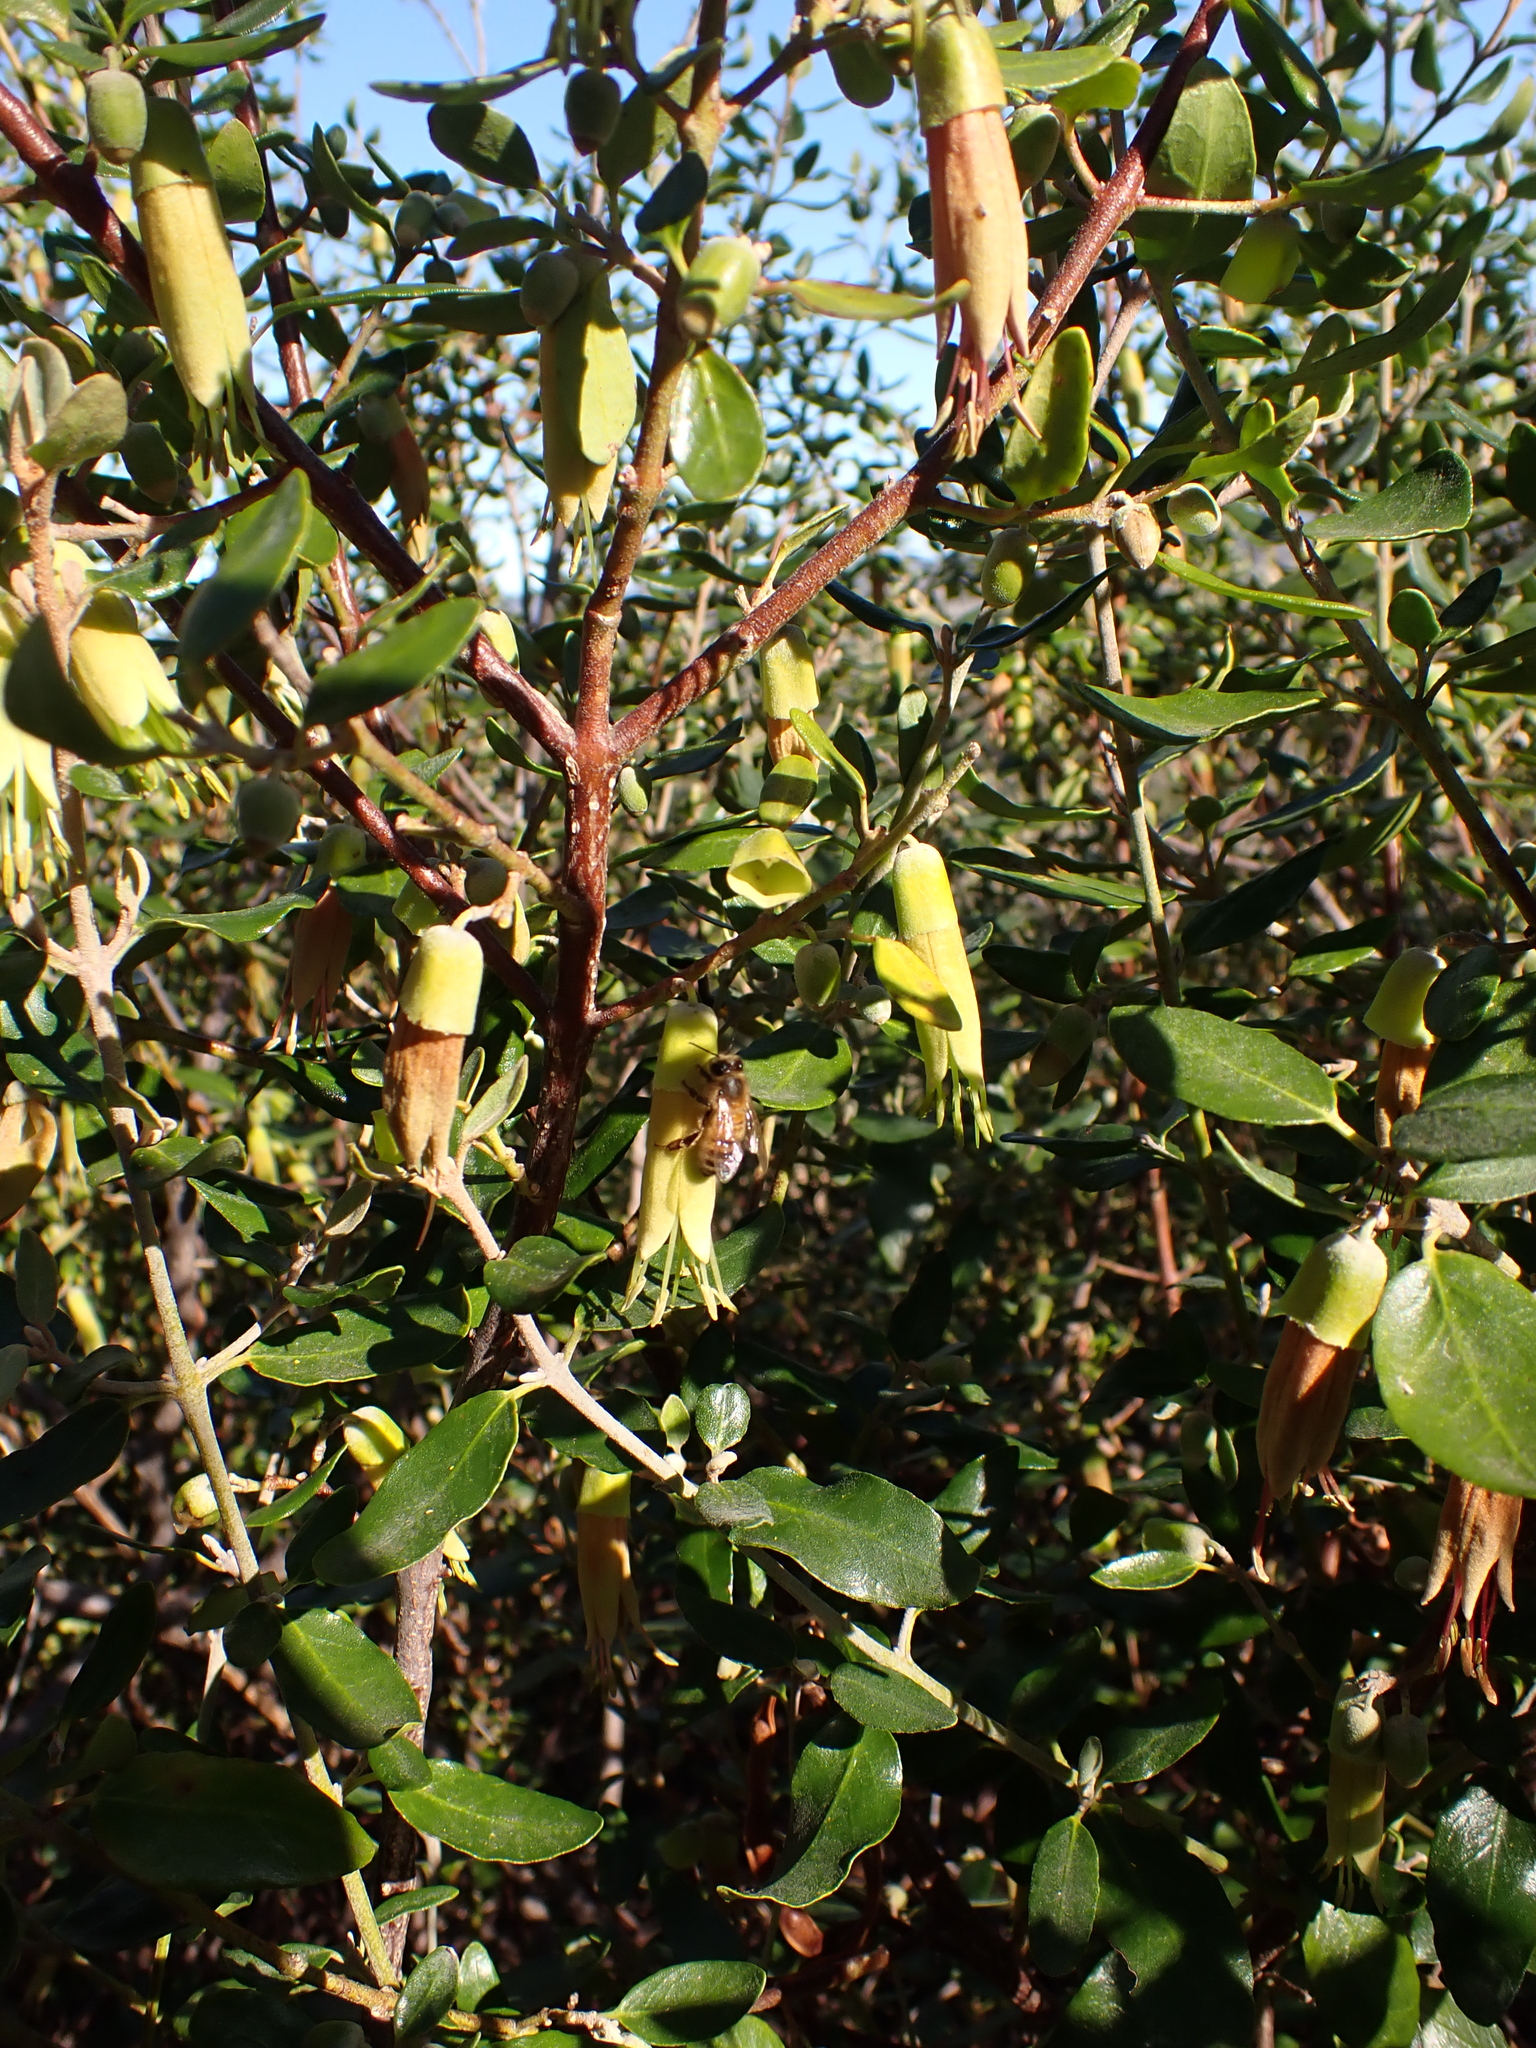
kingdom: Plantae
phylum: Tracheophyta
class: Magnoliopsida
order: Sapindales
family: Rutaceae
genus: Correa
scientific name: Correa glabra
